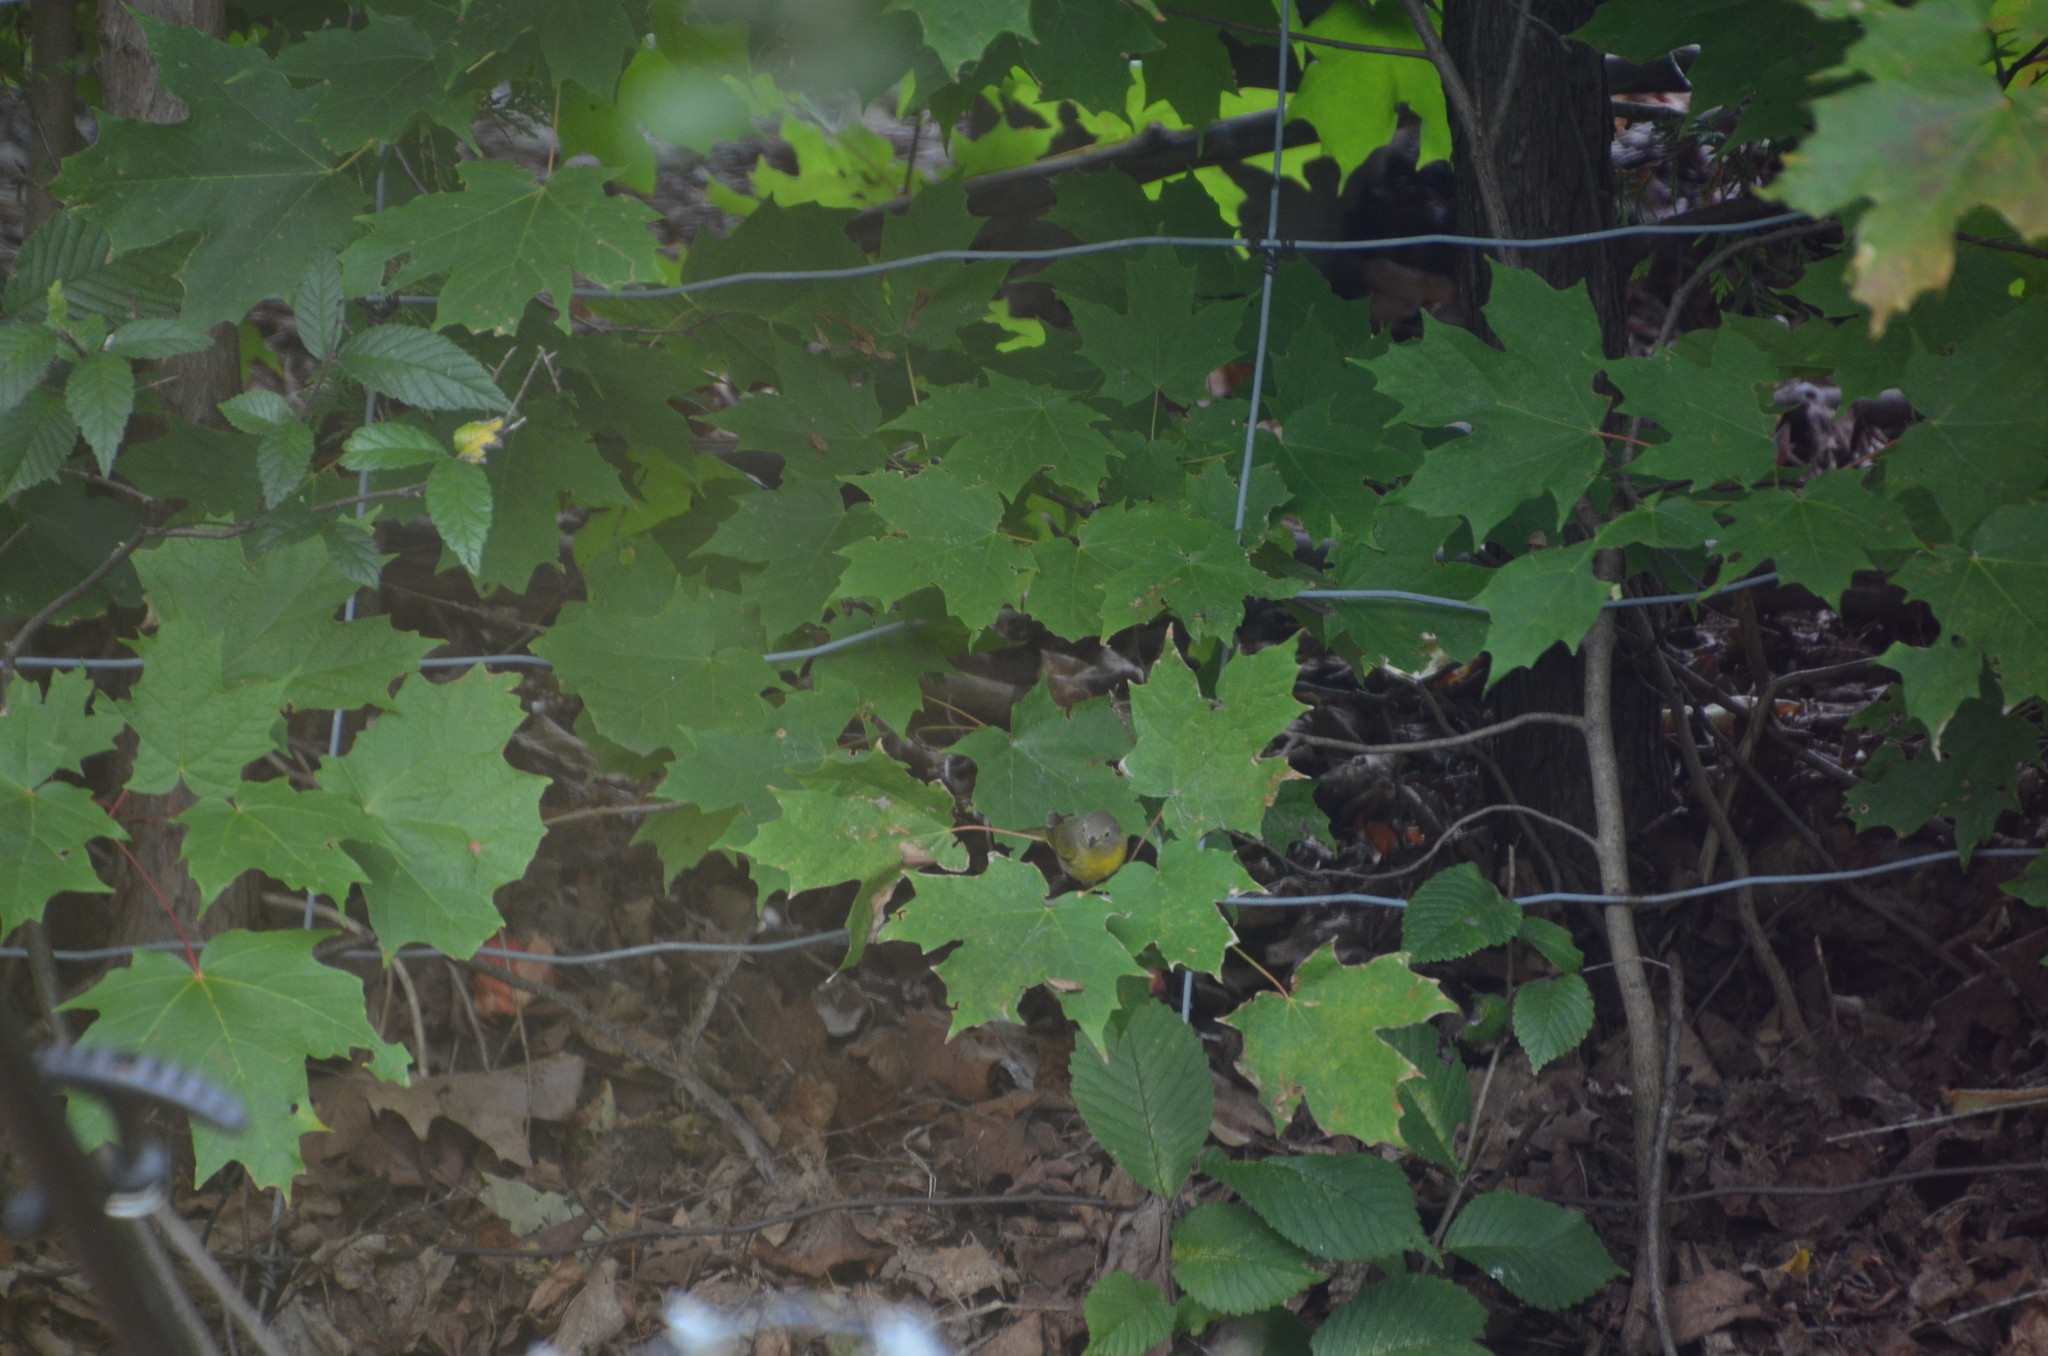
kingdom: Animalia
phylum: Chordata
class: Aves
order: Passeriformes
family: Parulidae
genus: Leiothlypis
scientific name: Leiothlypis ruficapilla
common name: Nashville warbler
